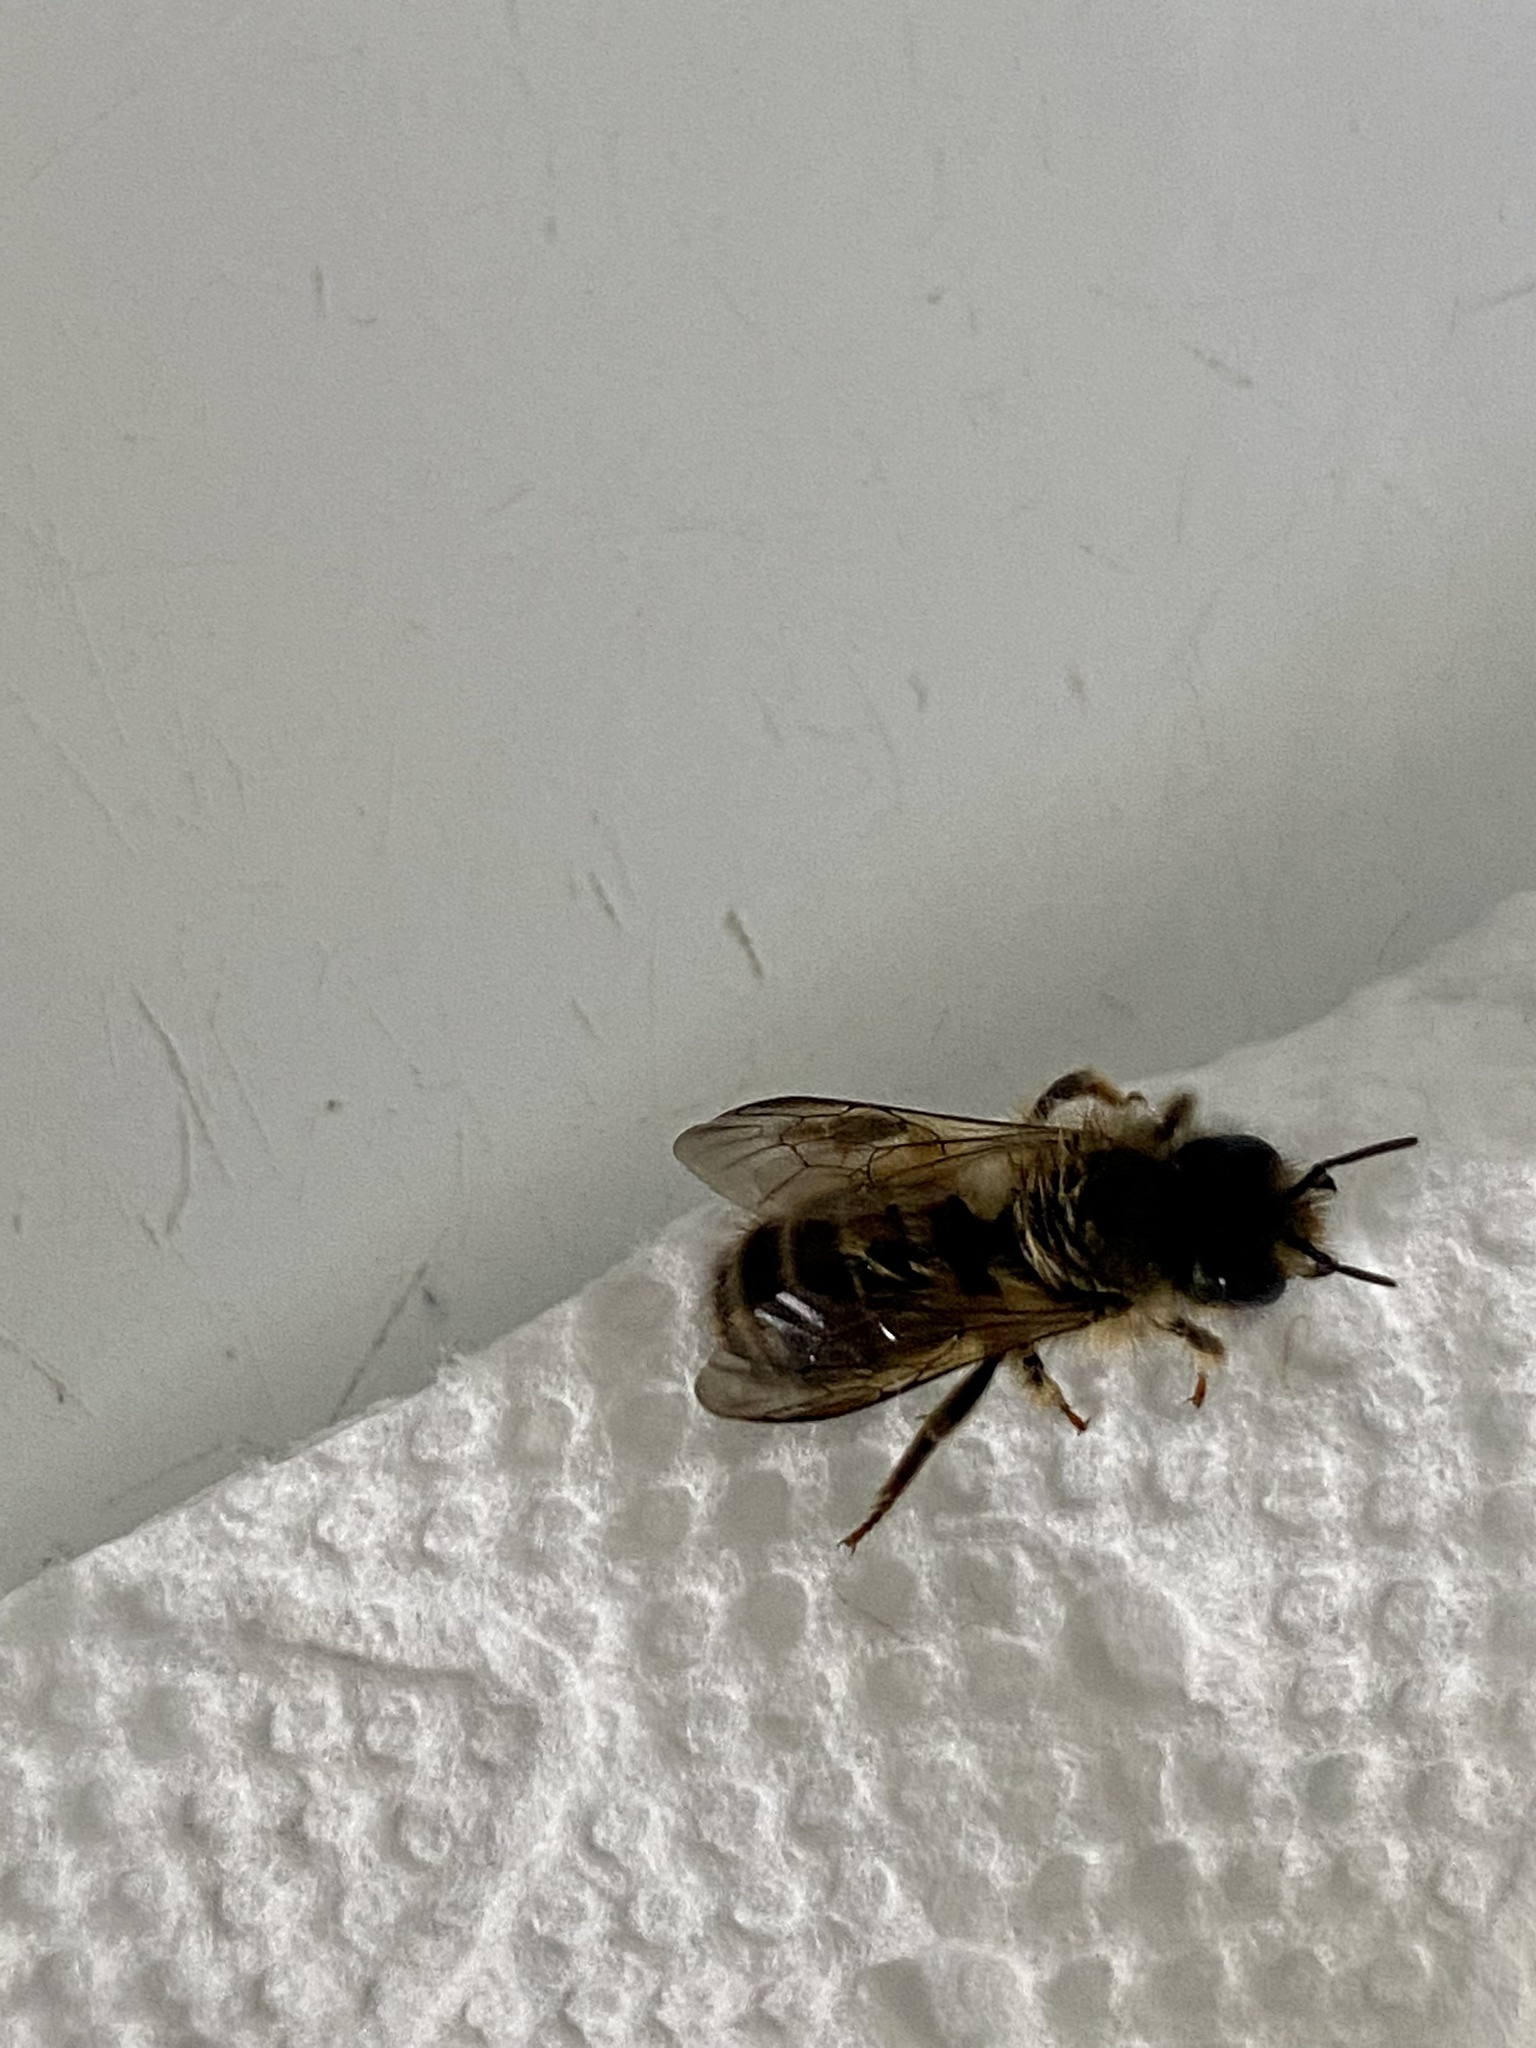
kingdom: Animalia
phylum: Arthropoda
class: Insecta
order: Hymenoptera
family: Megachilidae
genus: Osmia
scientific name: Osmia cornifrons
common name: Horn-faced bee
